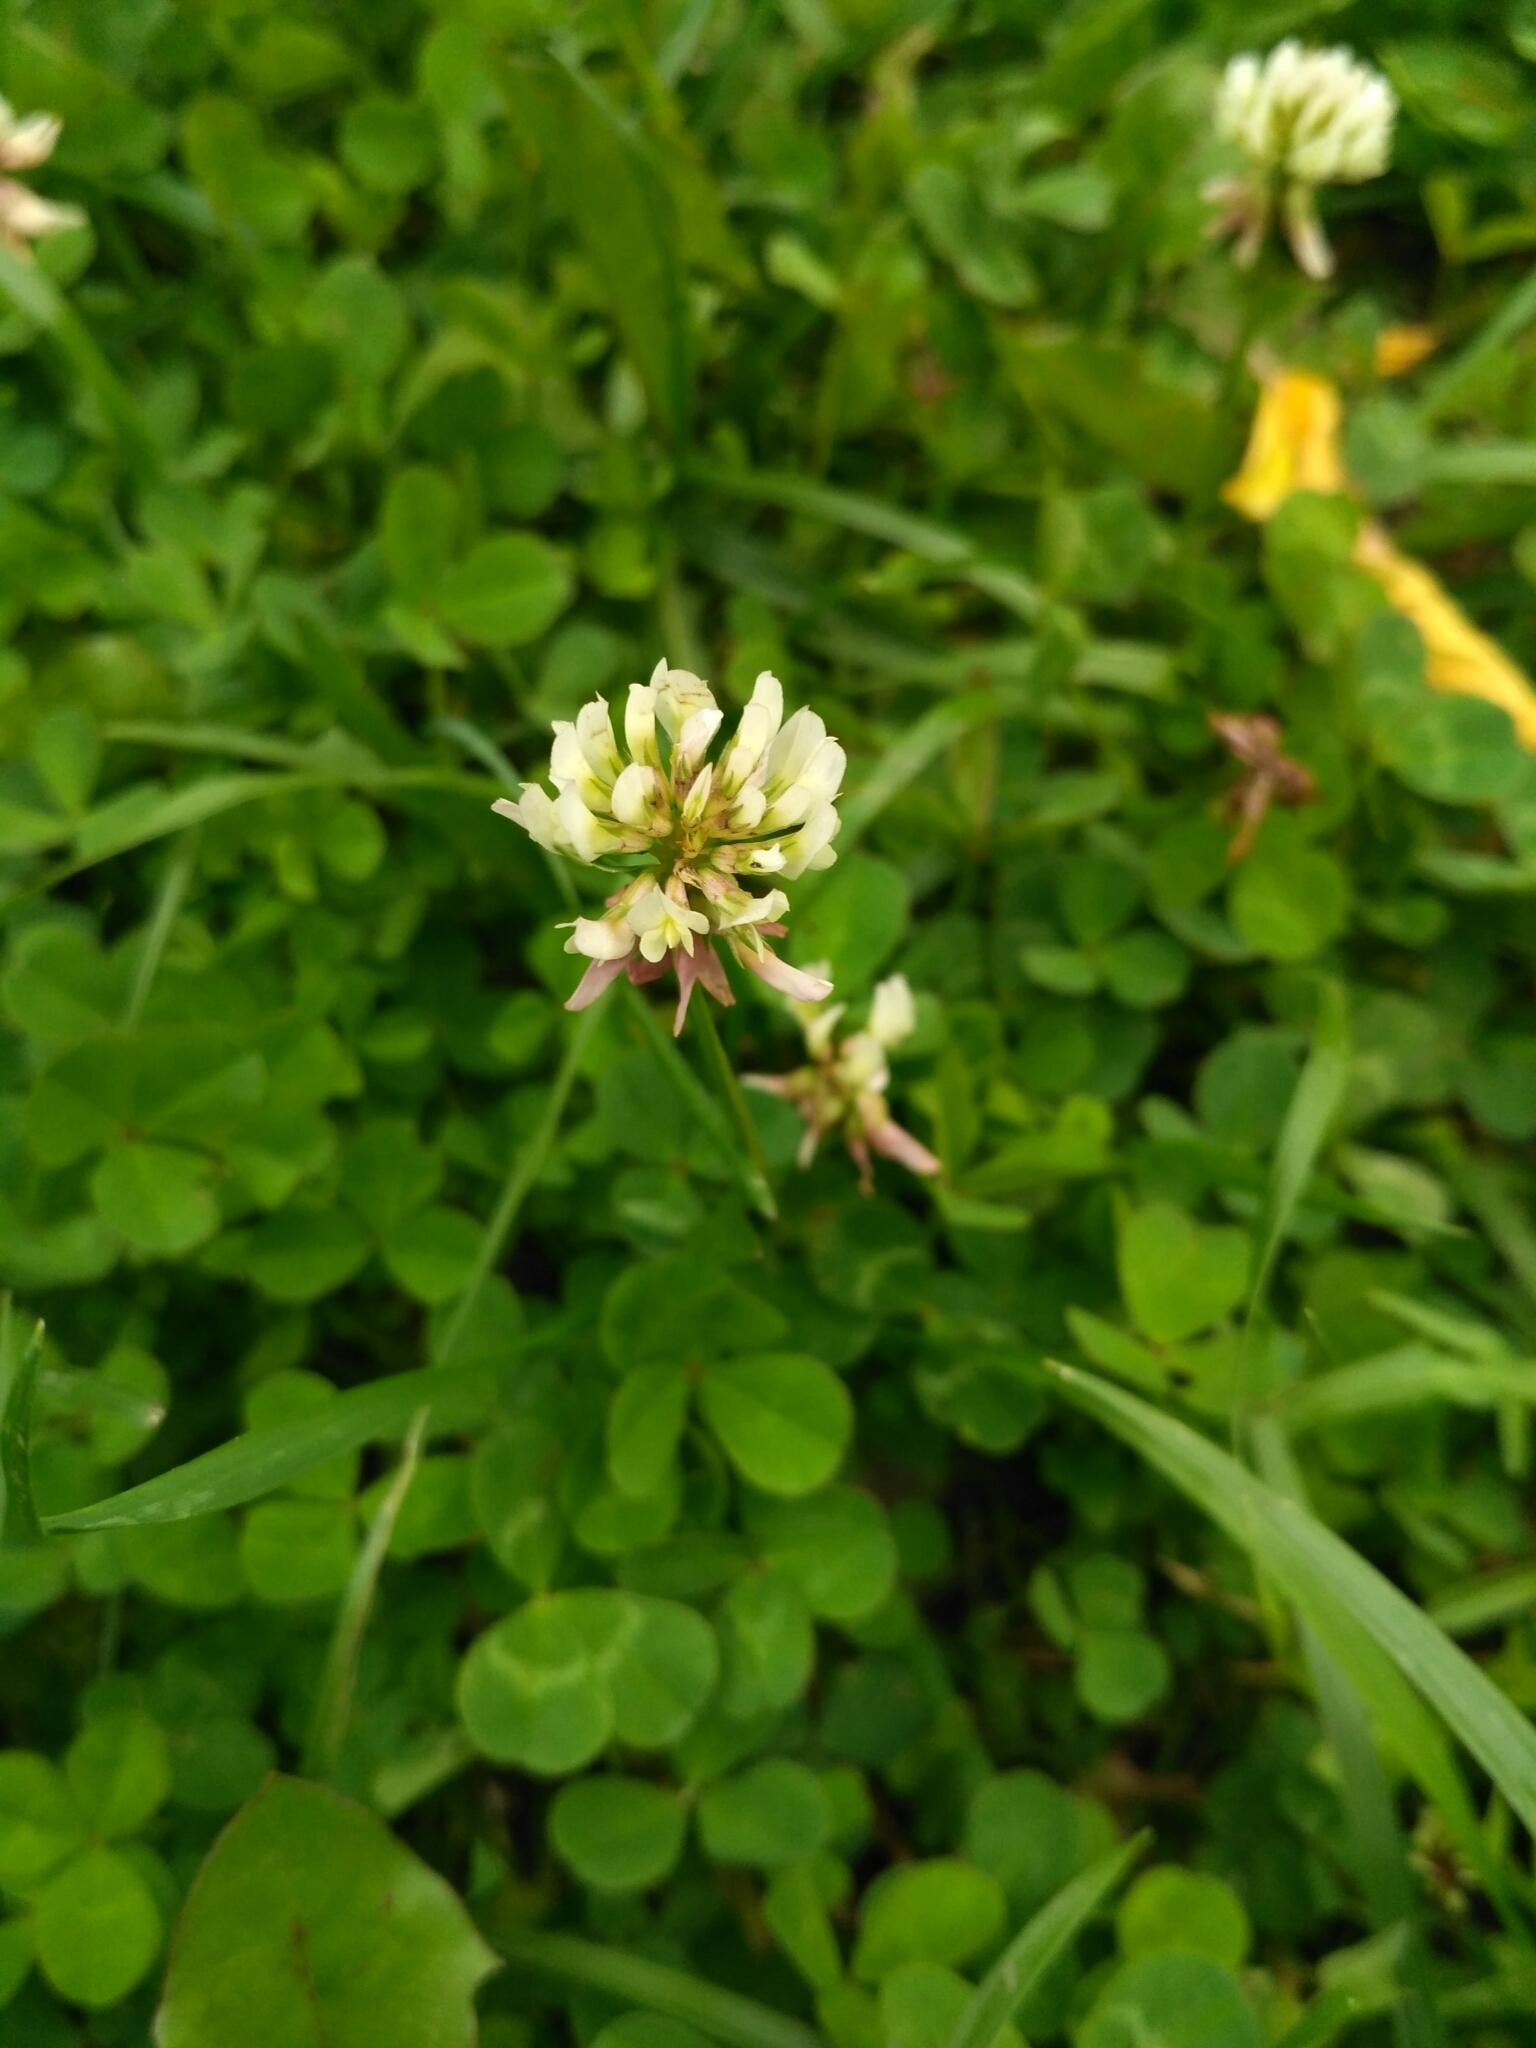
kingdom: Plantae
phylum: Tracheophyta
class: Magnoliopsida
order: Fabales
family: Fabaceae
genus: Trifolium
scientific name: Trifolium repens
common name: White clover
